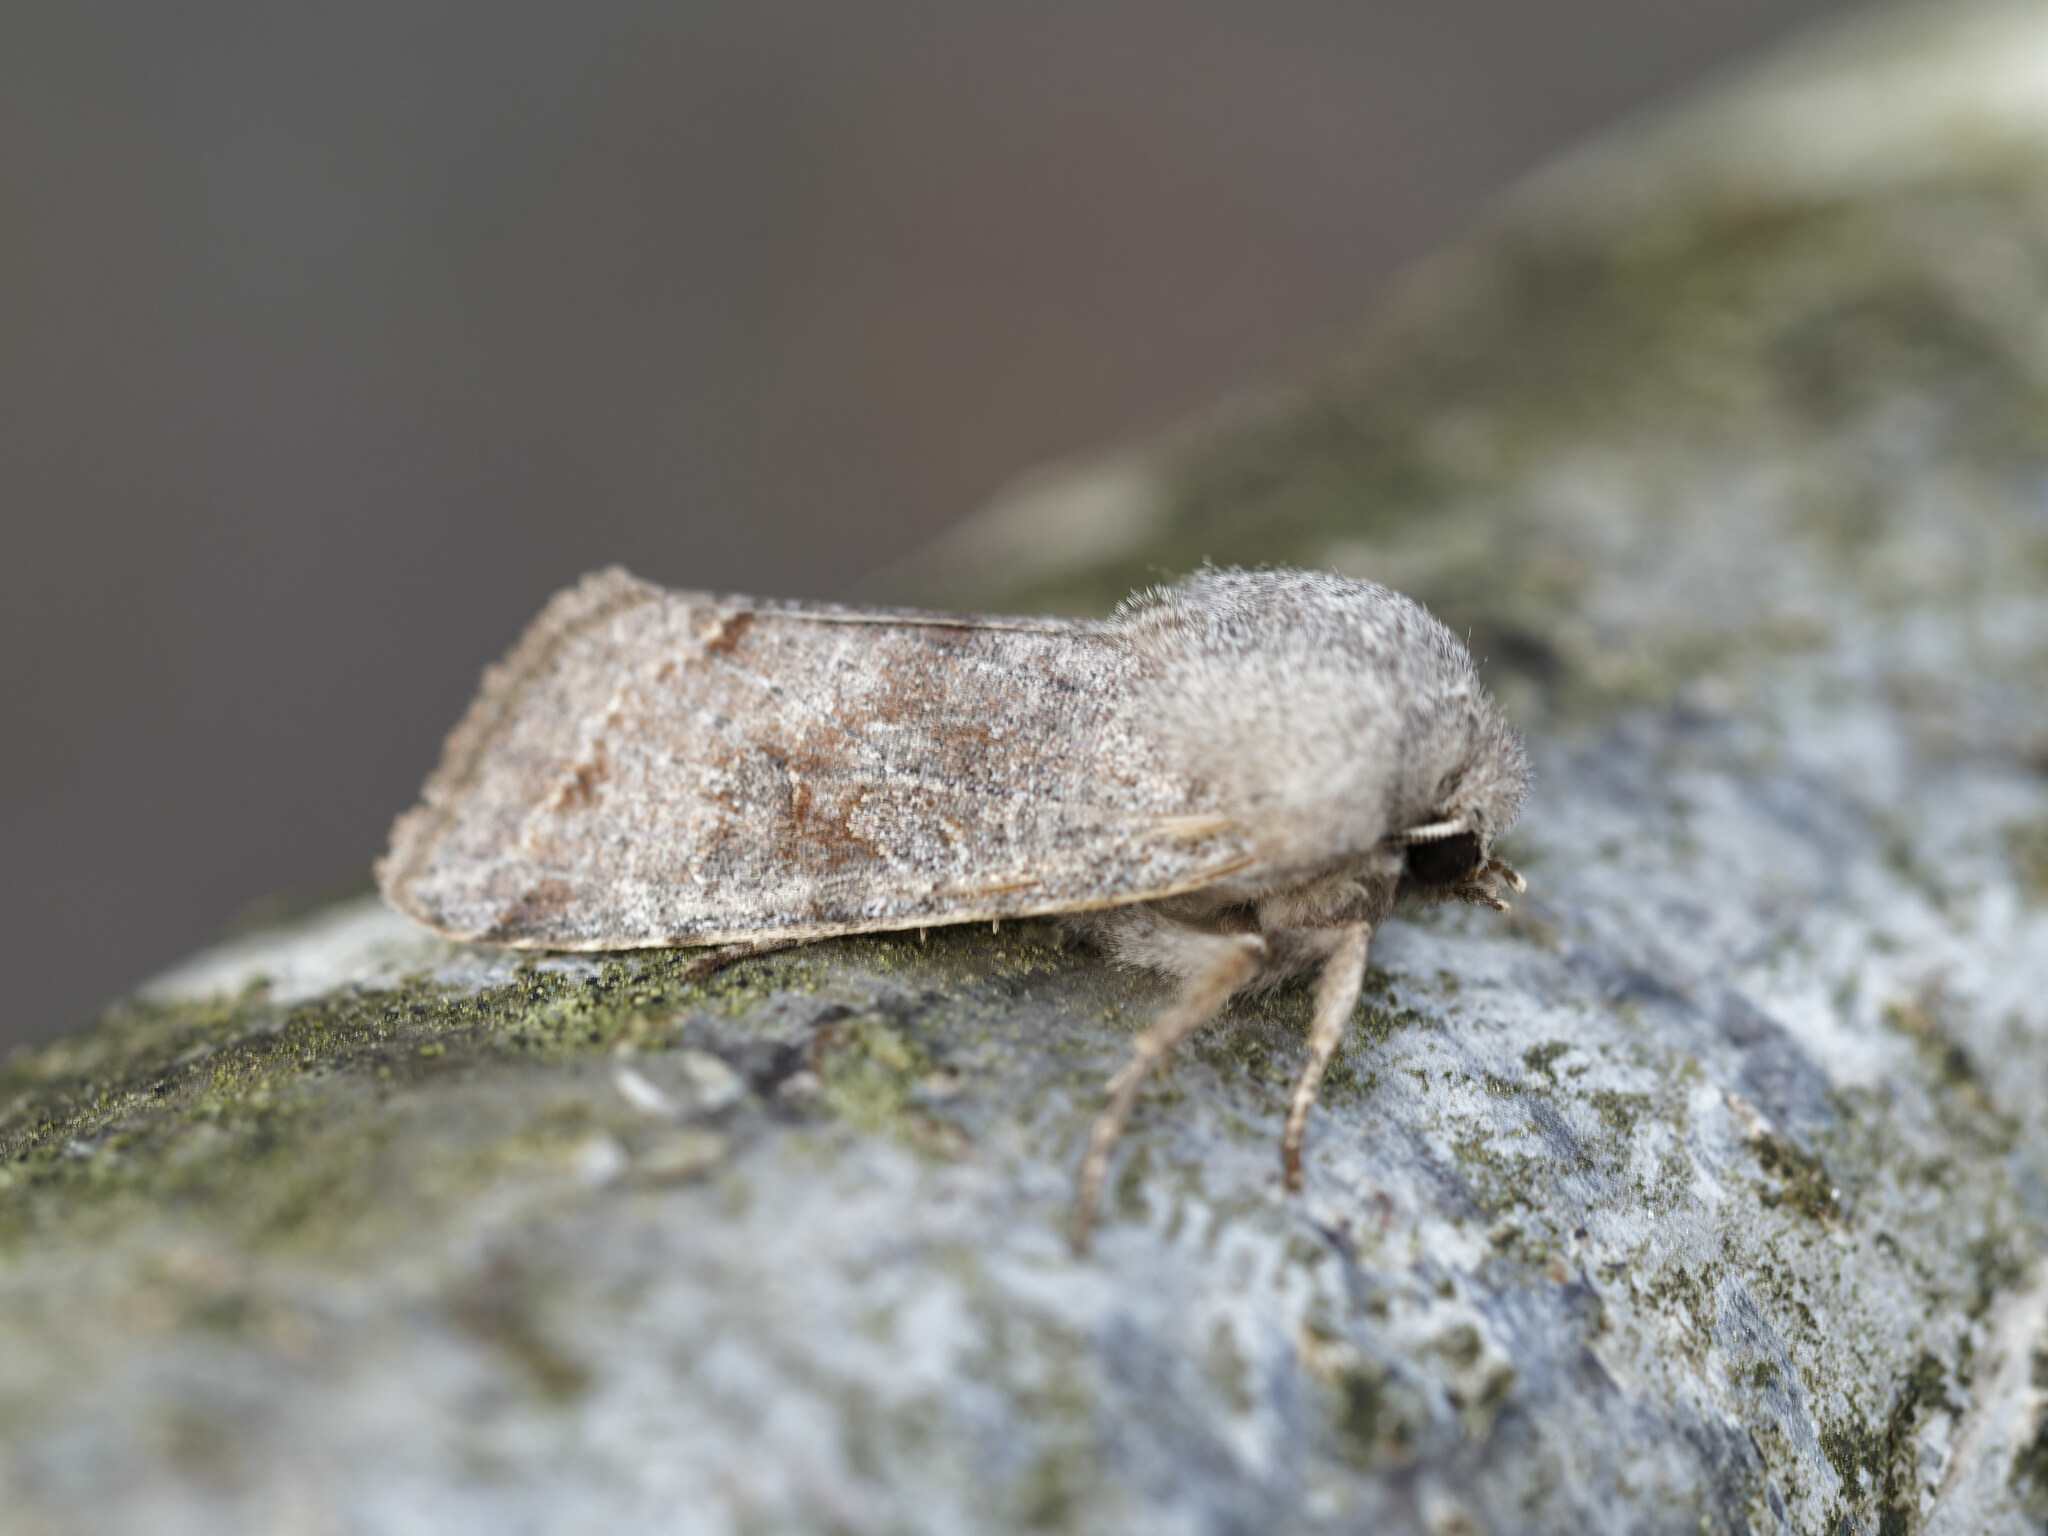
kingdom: Animalia
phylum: Arthropoda
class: Insecta
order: Lepidoptera
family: Noctuidae
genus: Orthosia
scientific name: Orthosia incerta
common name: Clouded drab
